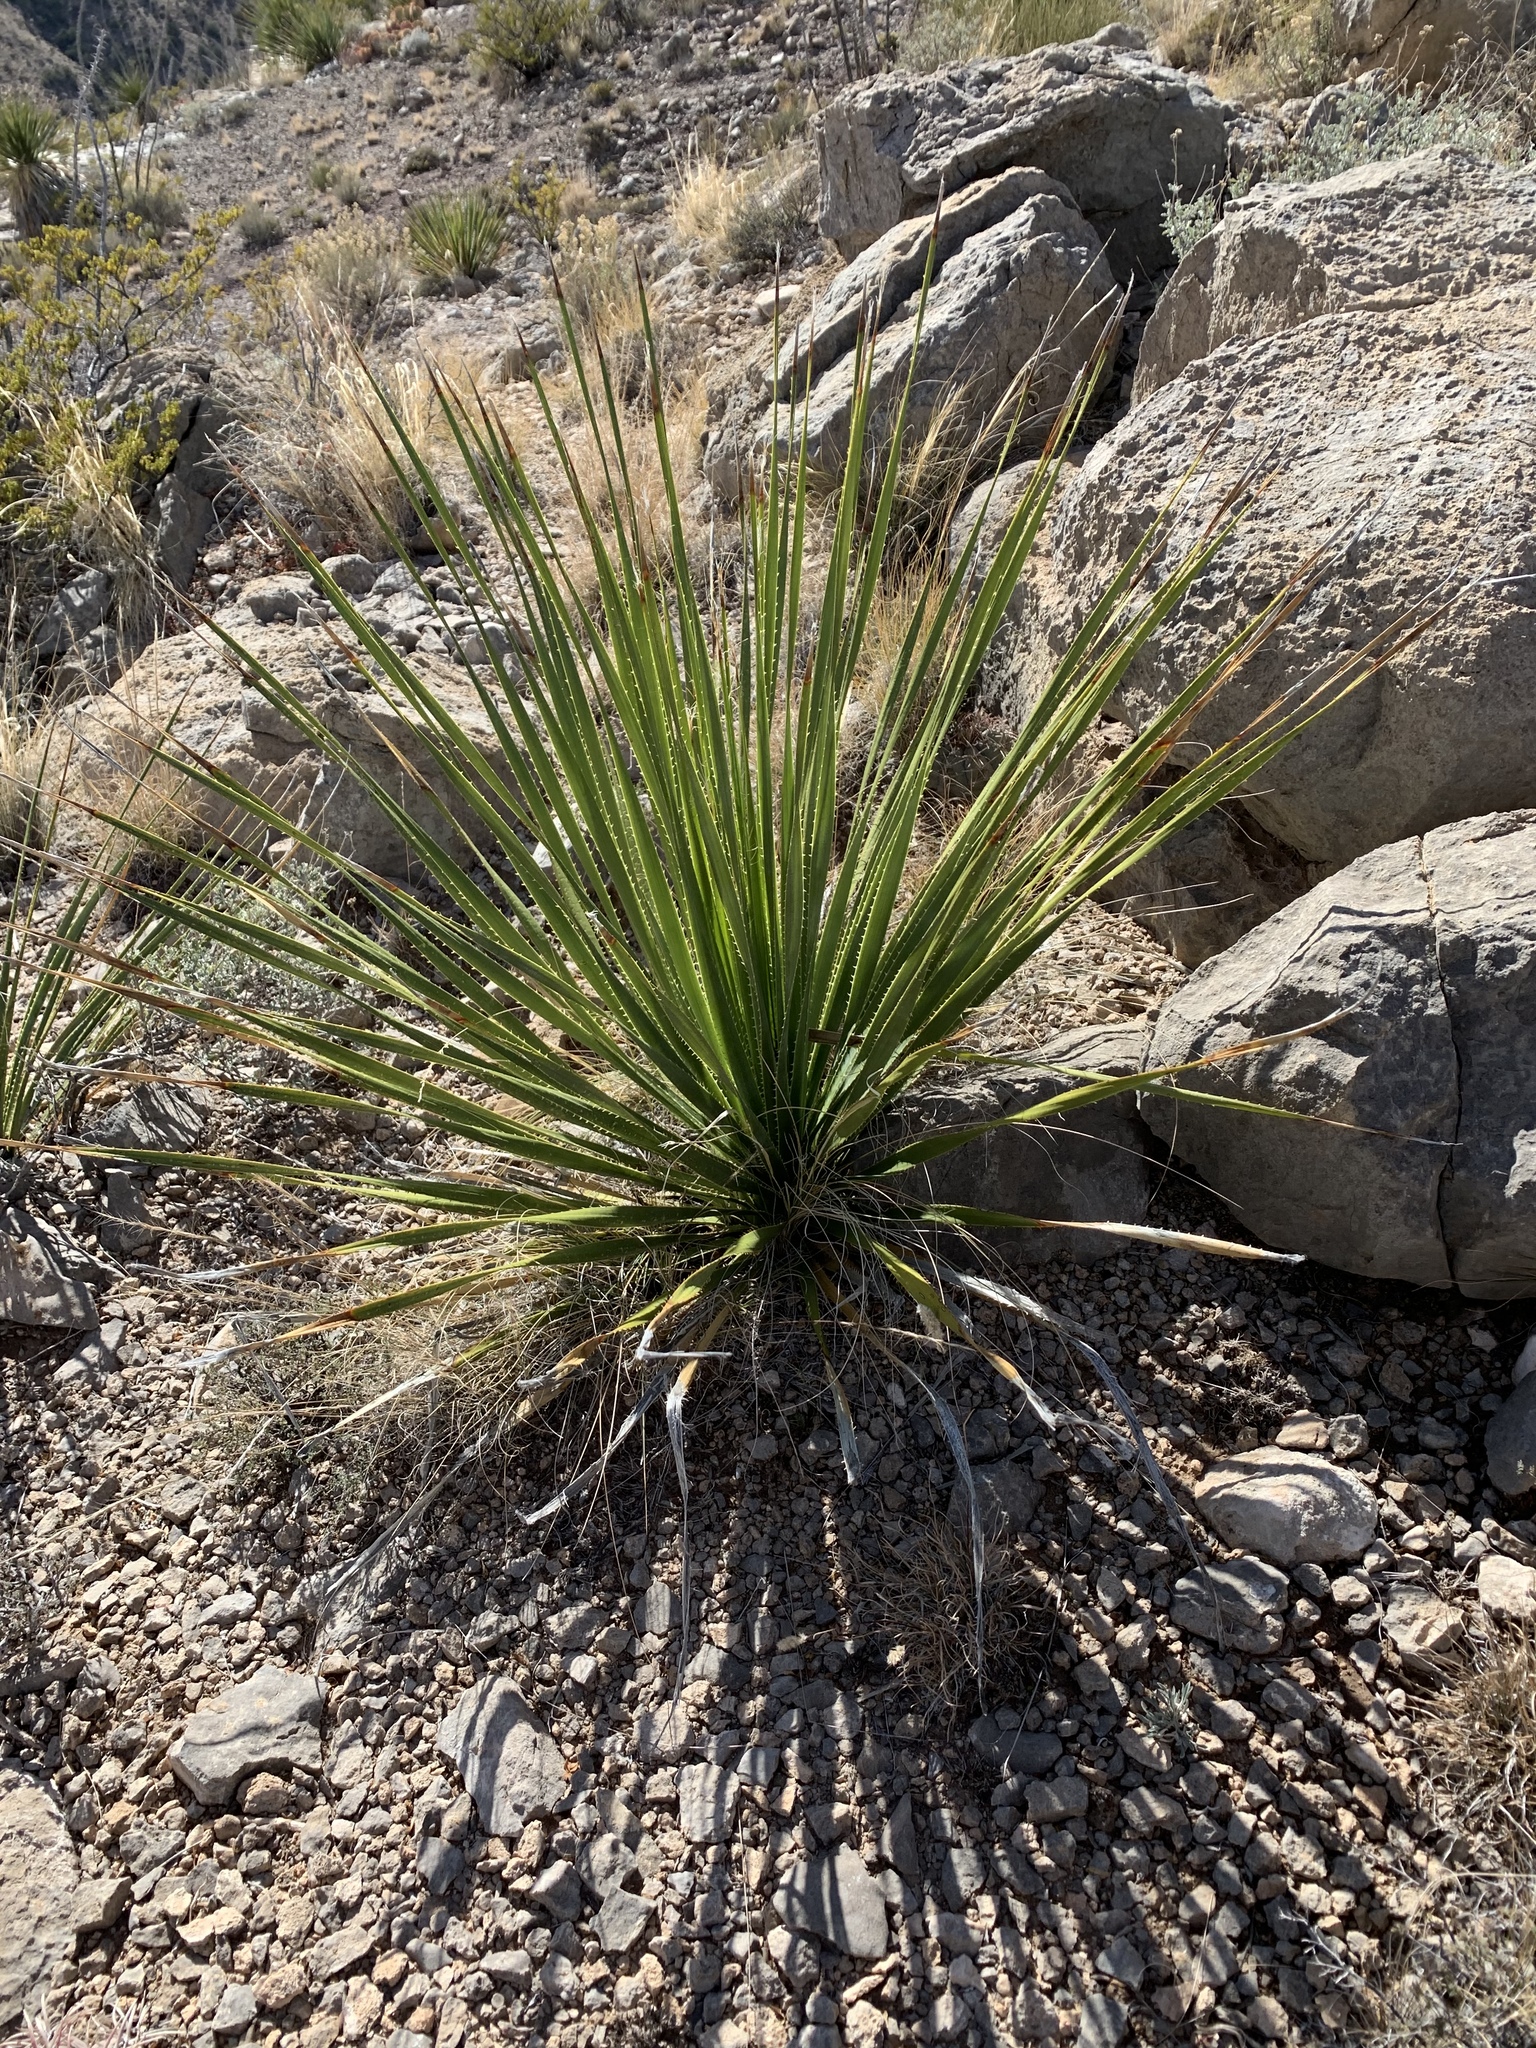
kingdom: Plantae
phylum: Tracheophyta
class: Liliopsida
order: Asparagales
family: Asparagaceae
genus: Dasylirion
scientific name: Dasylirion wheeleri
